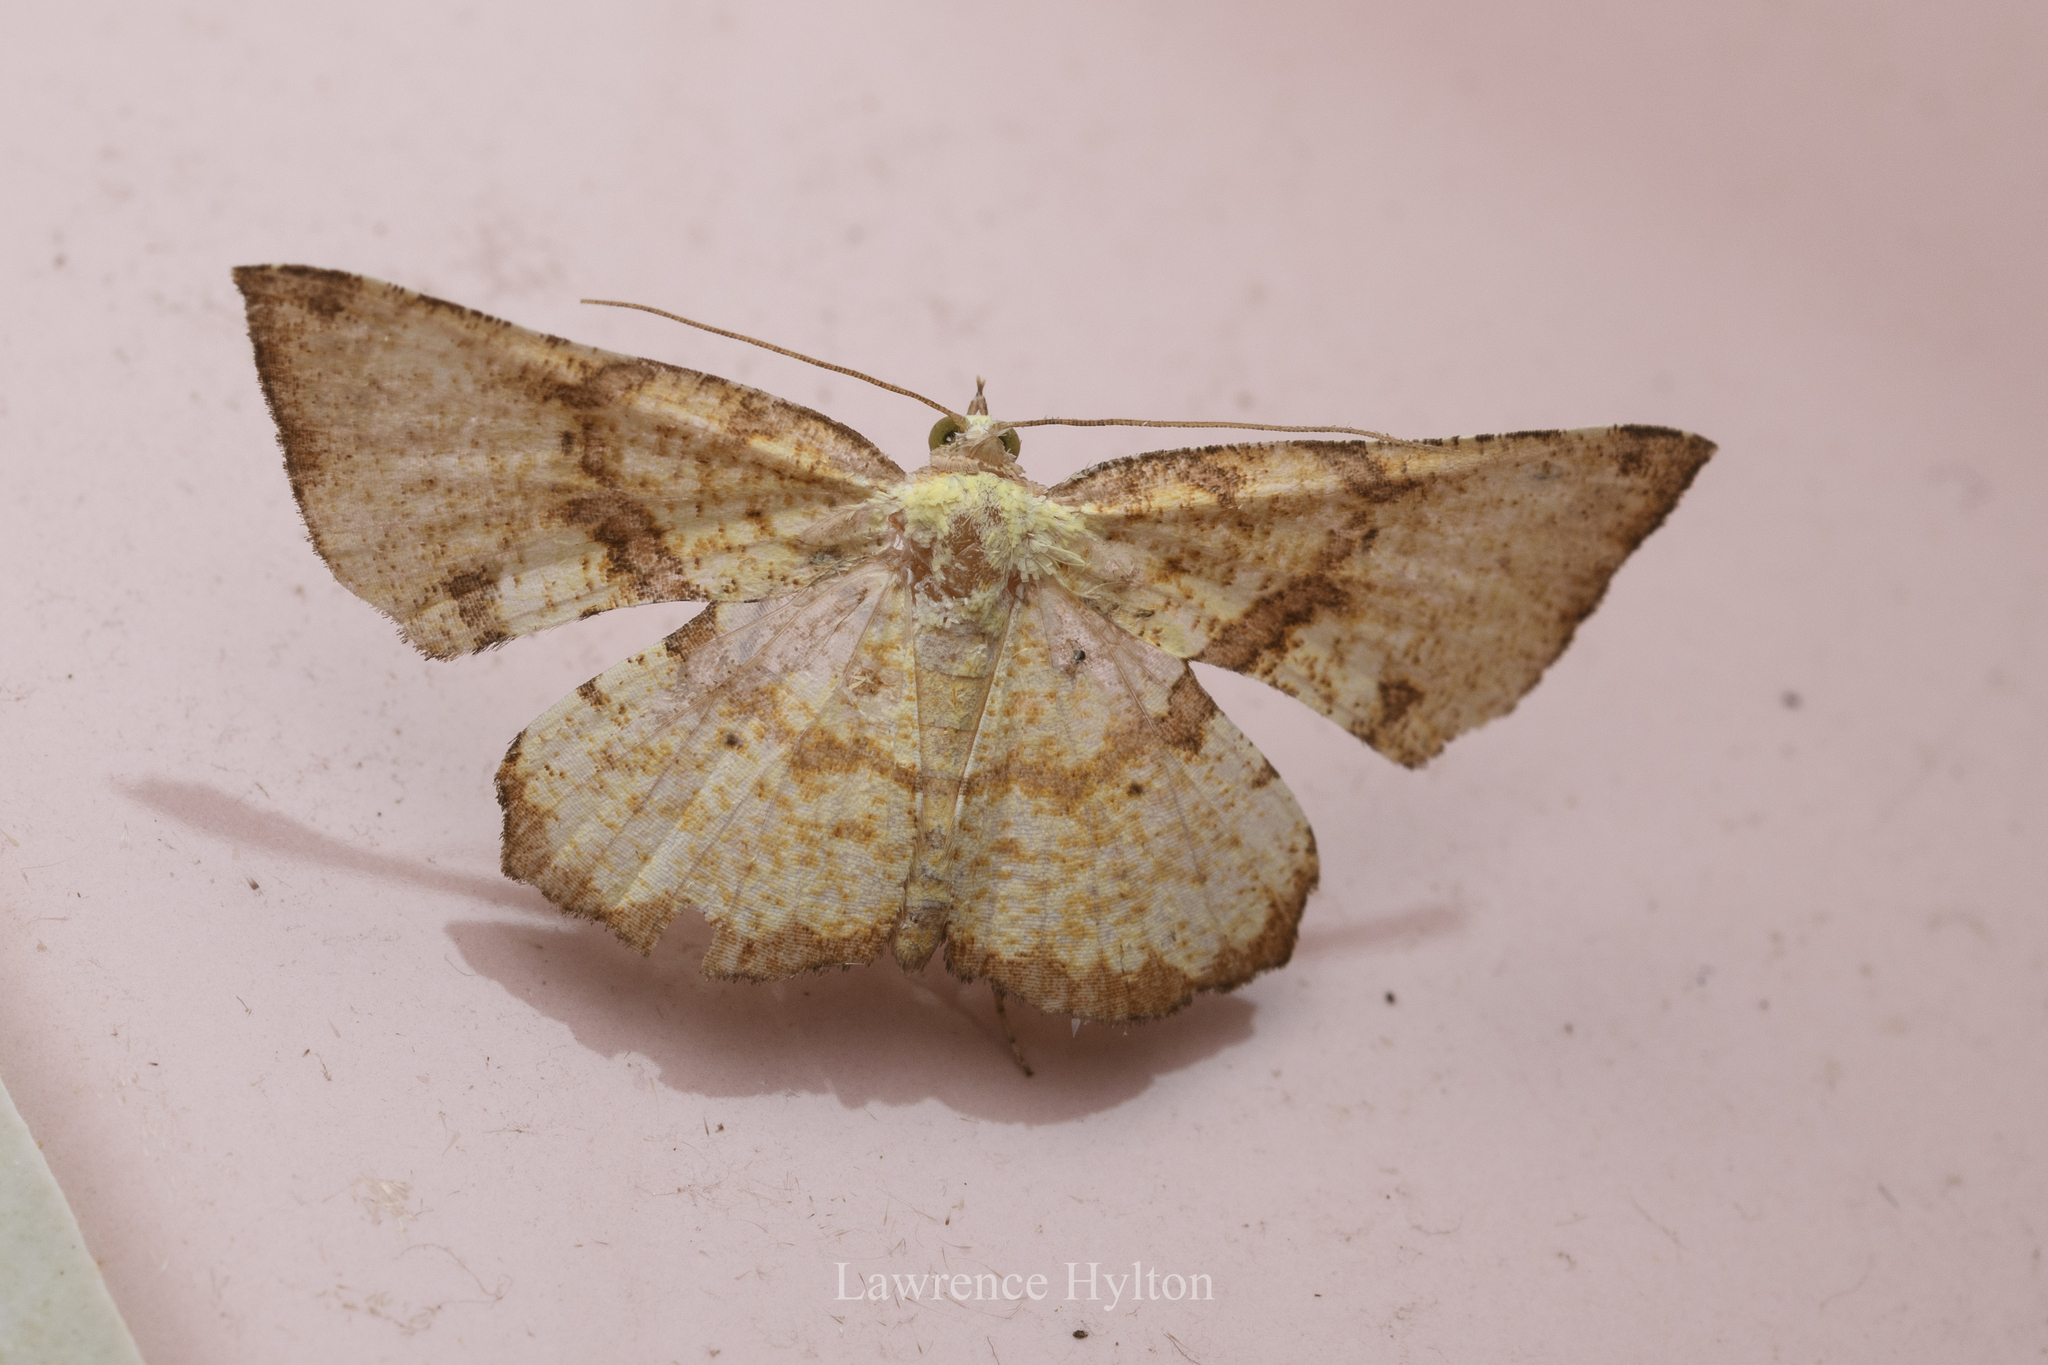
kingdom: Animalia
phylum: Arthropoda
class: Insecta
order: Lepidoptera
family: Geometridae
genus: Corymica
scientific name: Corymica deducta
